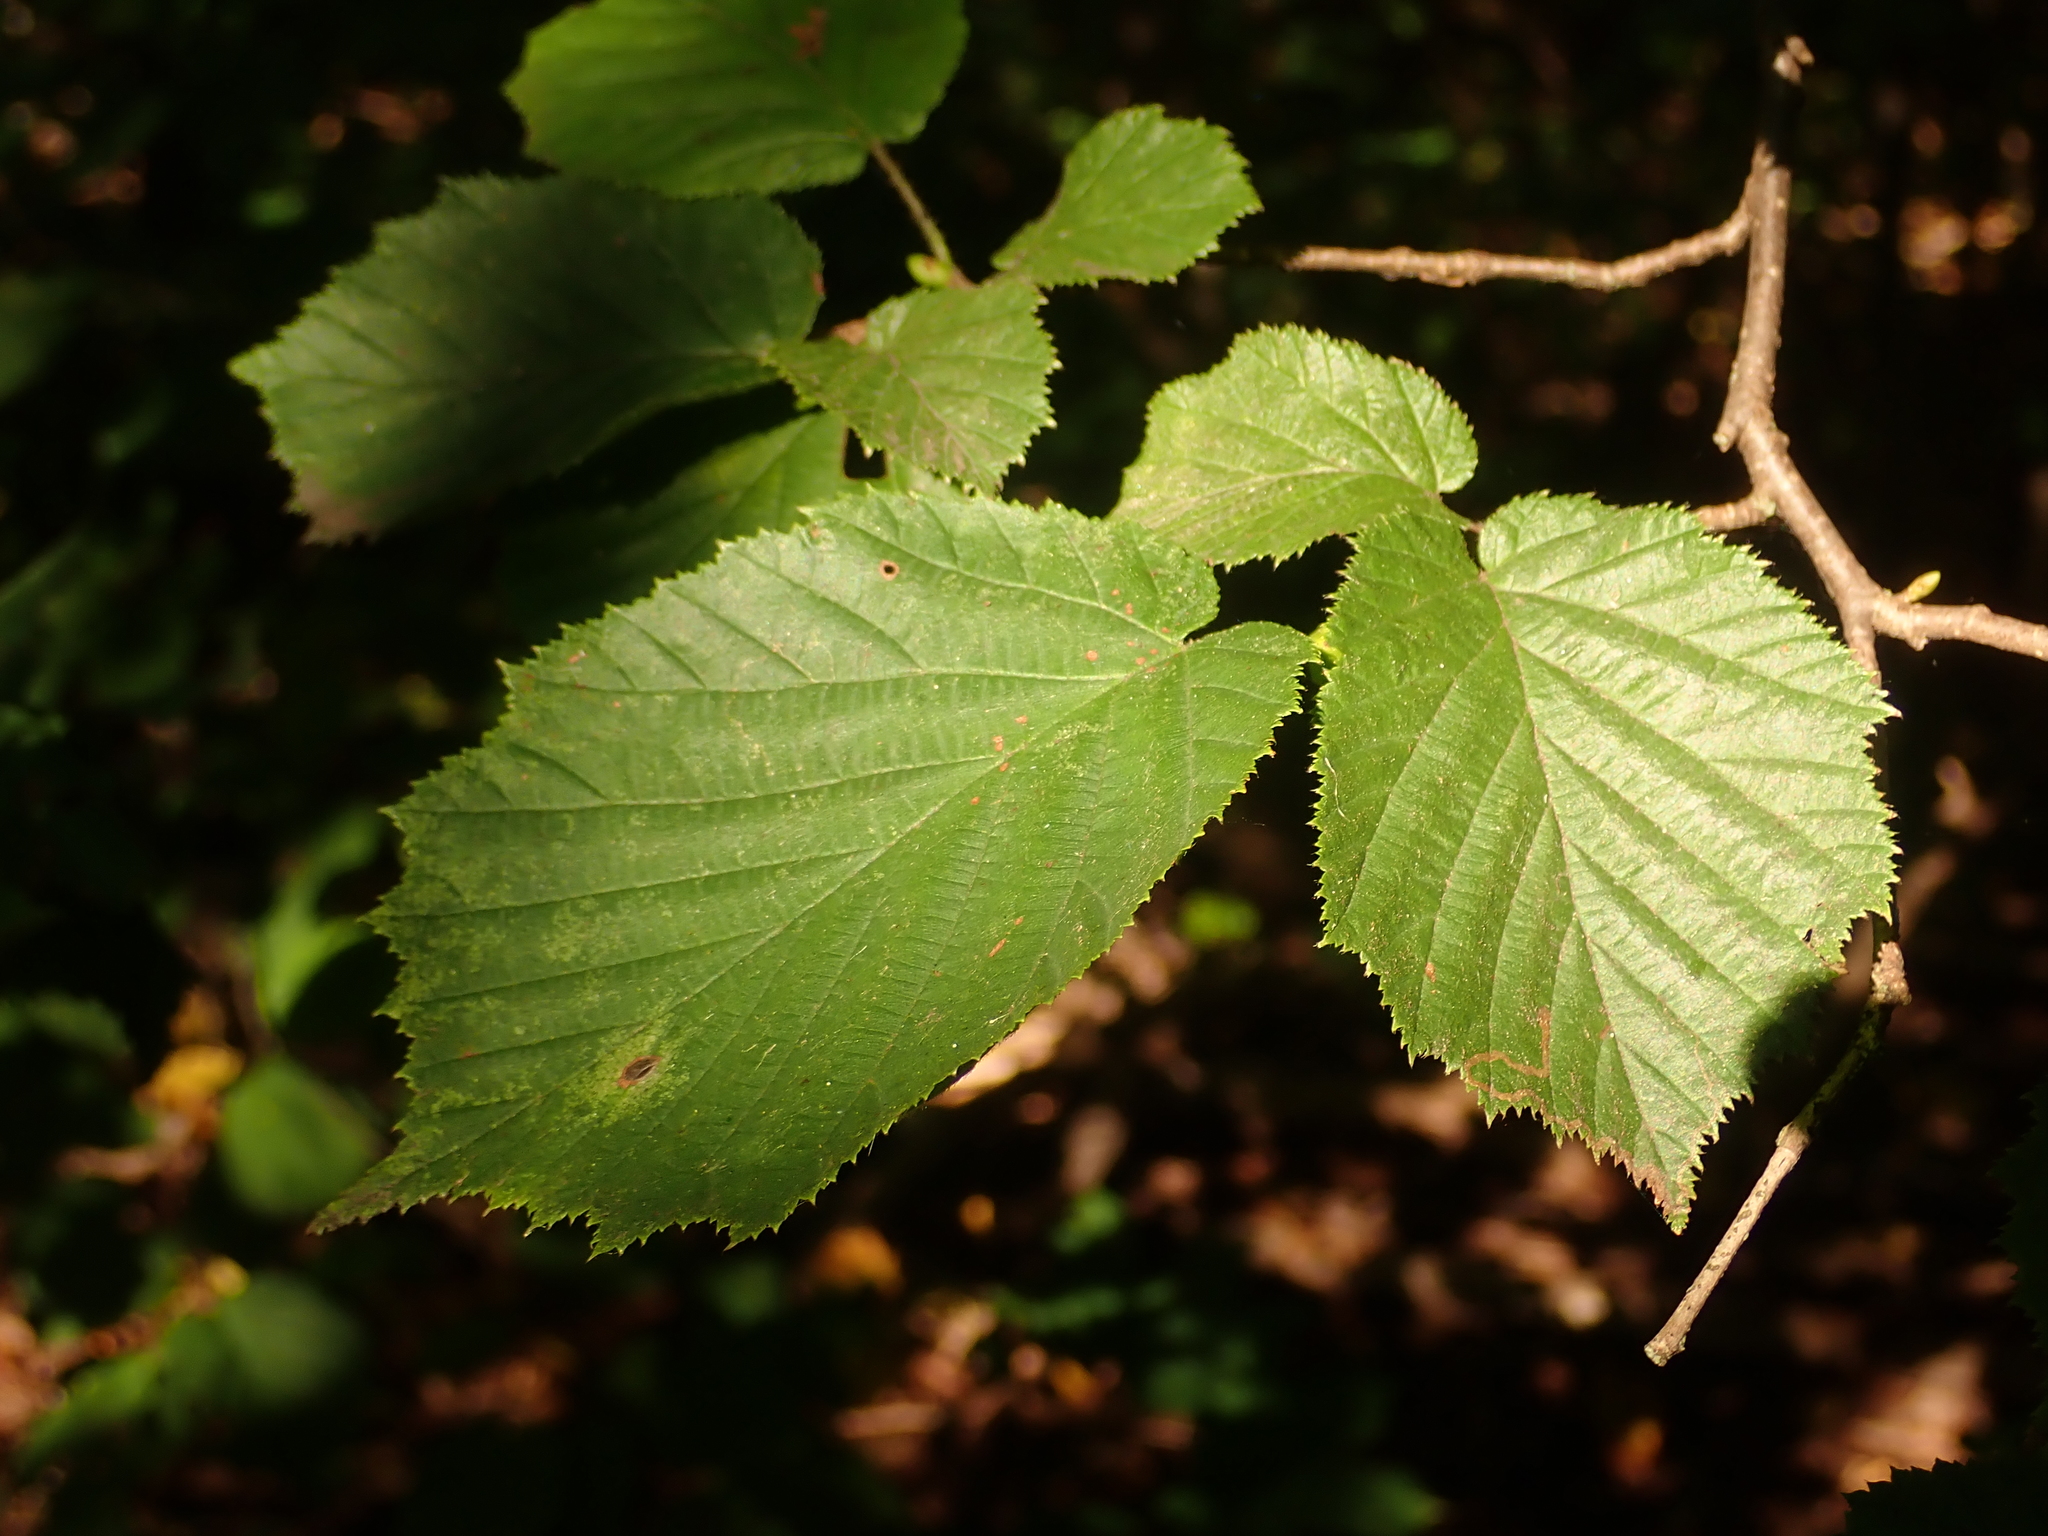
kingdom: Plantae
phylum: Tracheophyta
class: Magnoliopsida
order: Fagales
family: Betulaceae
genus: Corylus
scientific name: Corylus avellana
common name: European hazel
